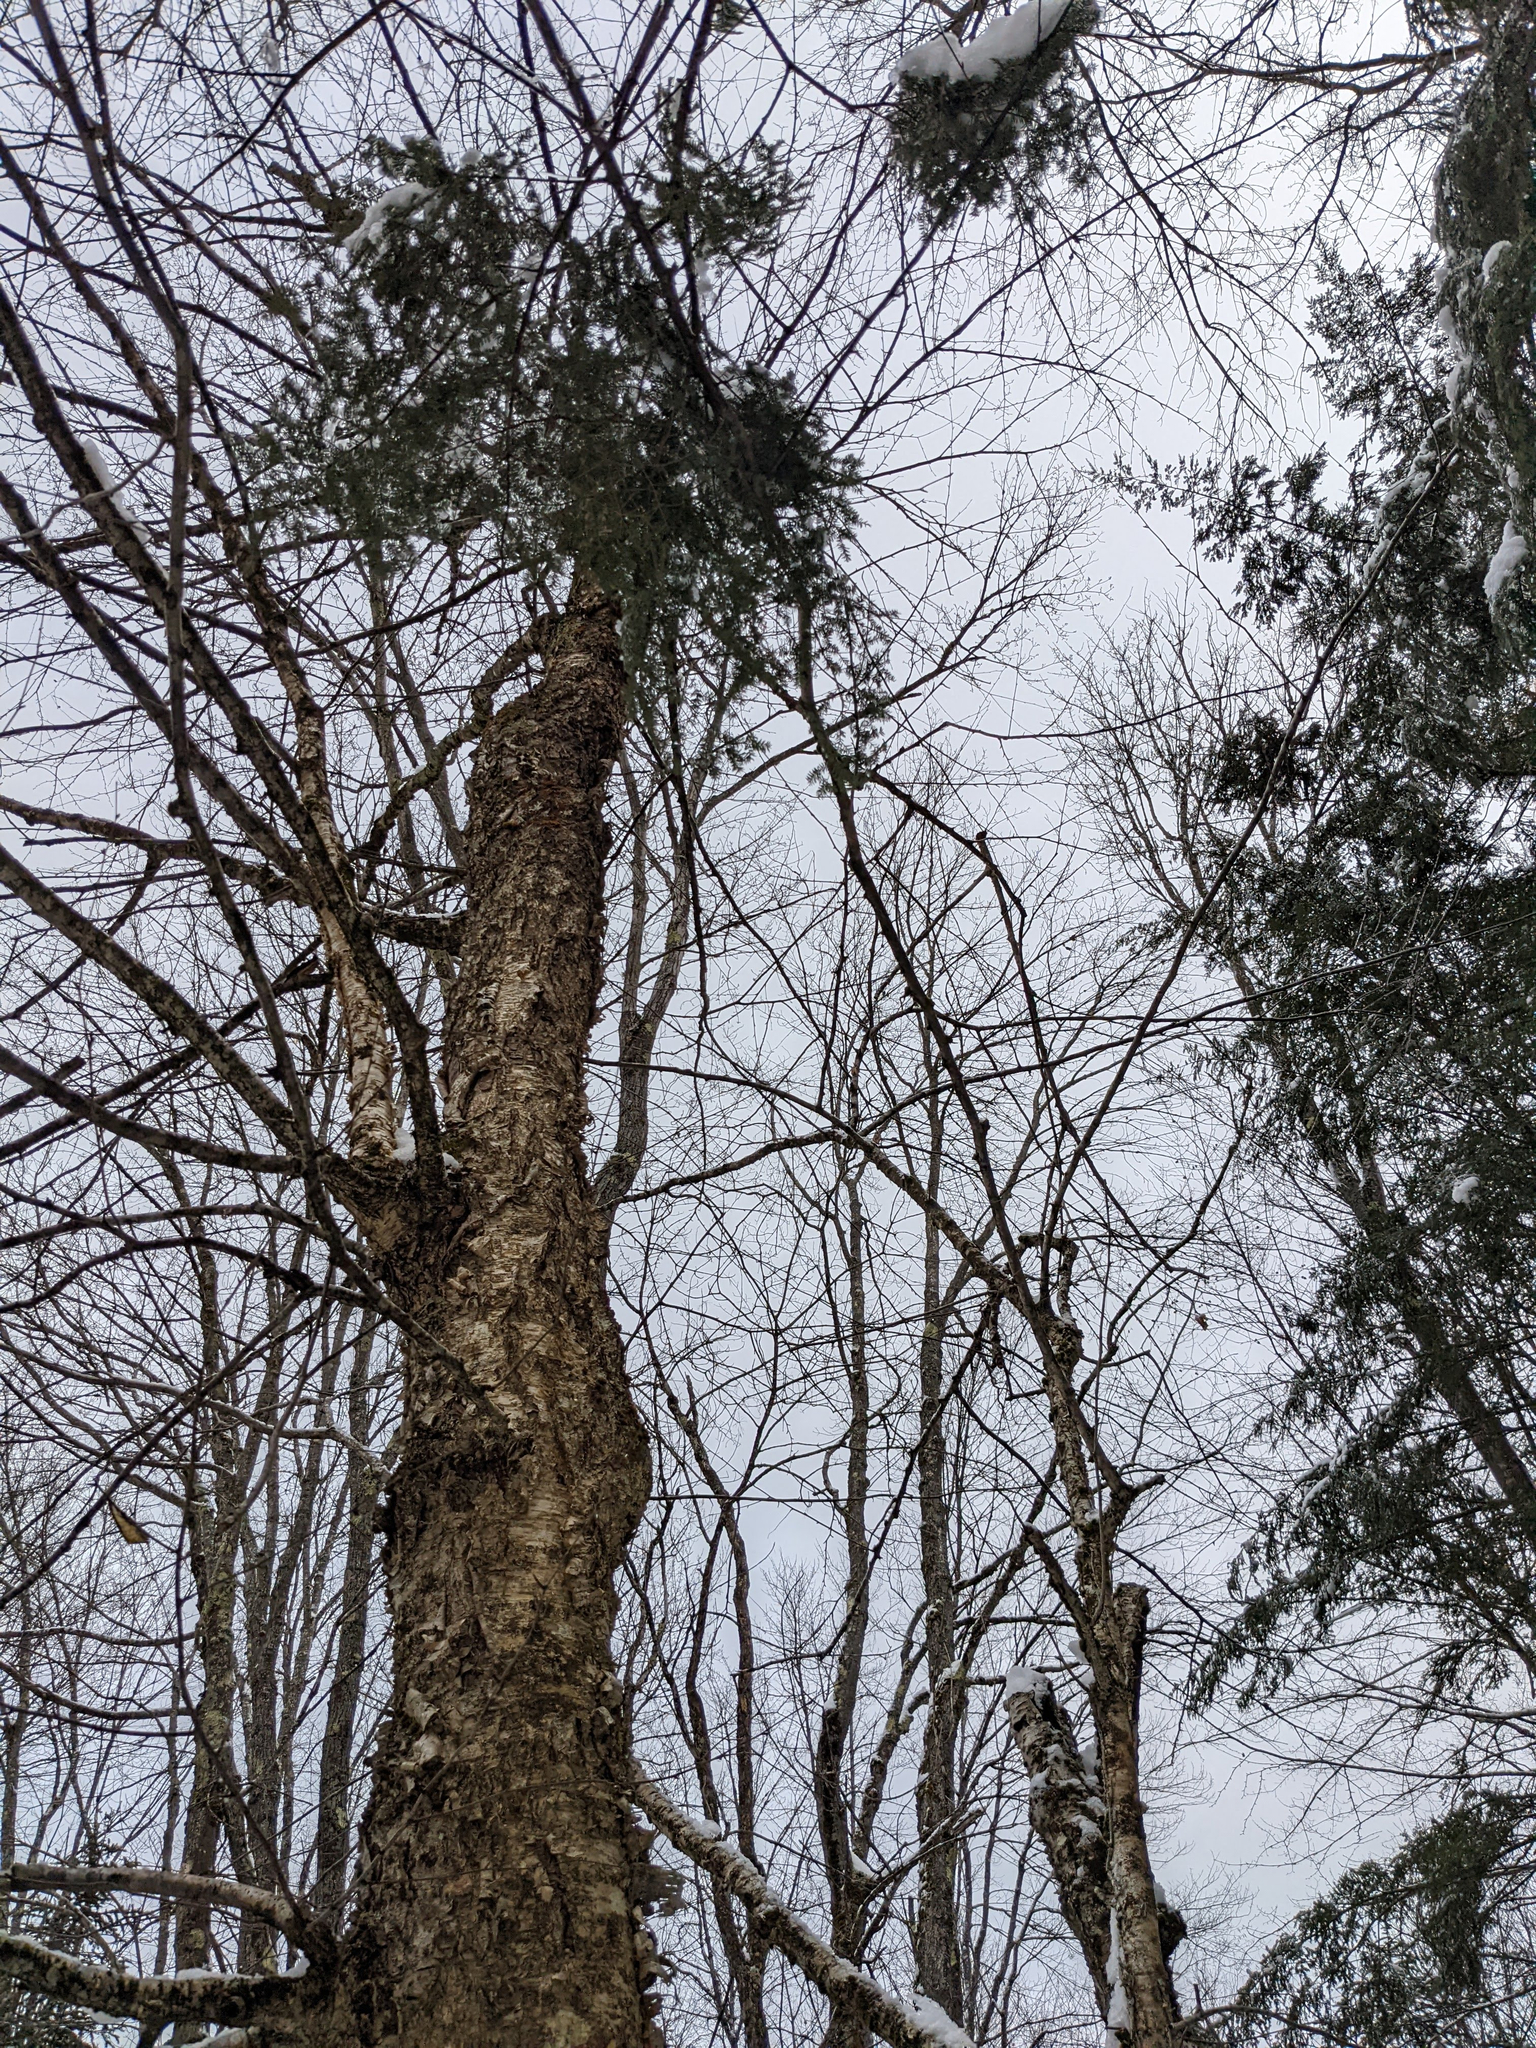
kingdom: Plantae
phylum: Tracheophyta
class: Magnoliopsida
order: Fagales
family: Betulaceae
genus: Betula
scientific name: Betula alleghaniensis
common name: Yellow birch
